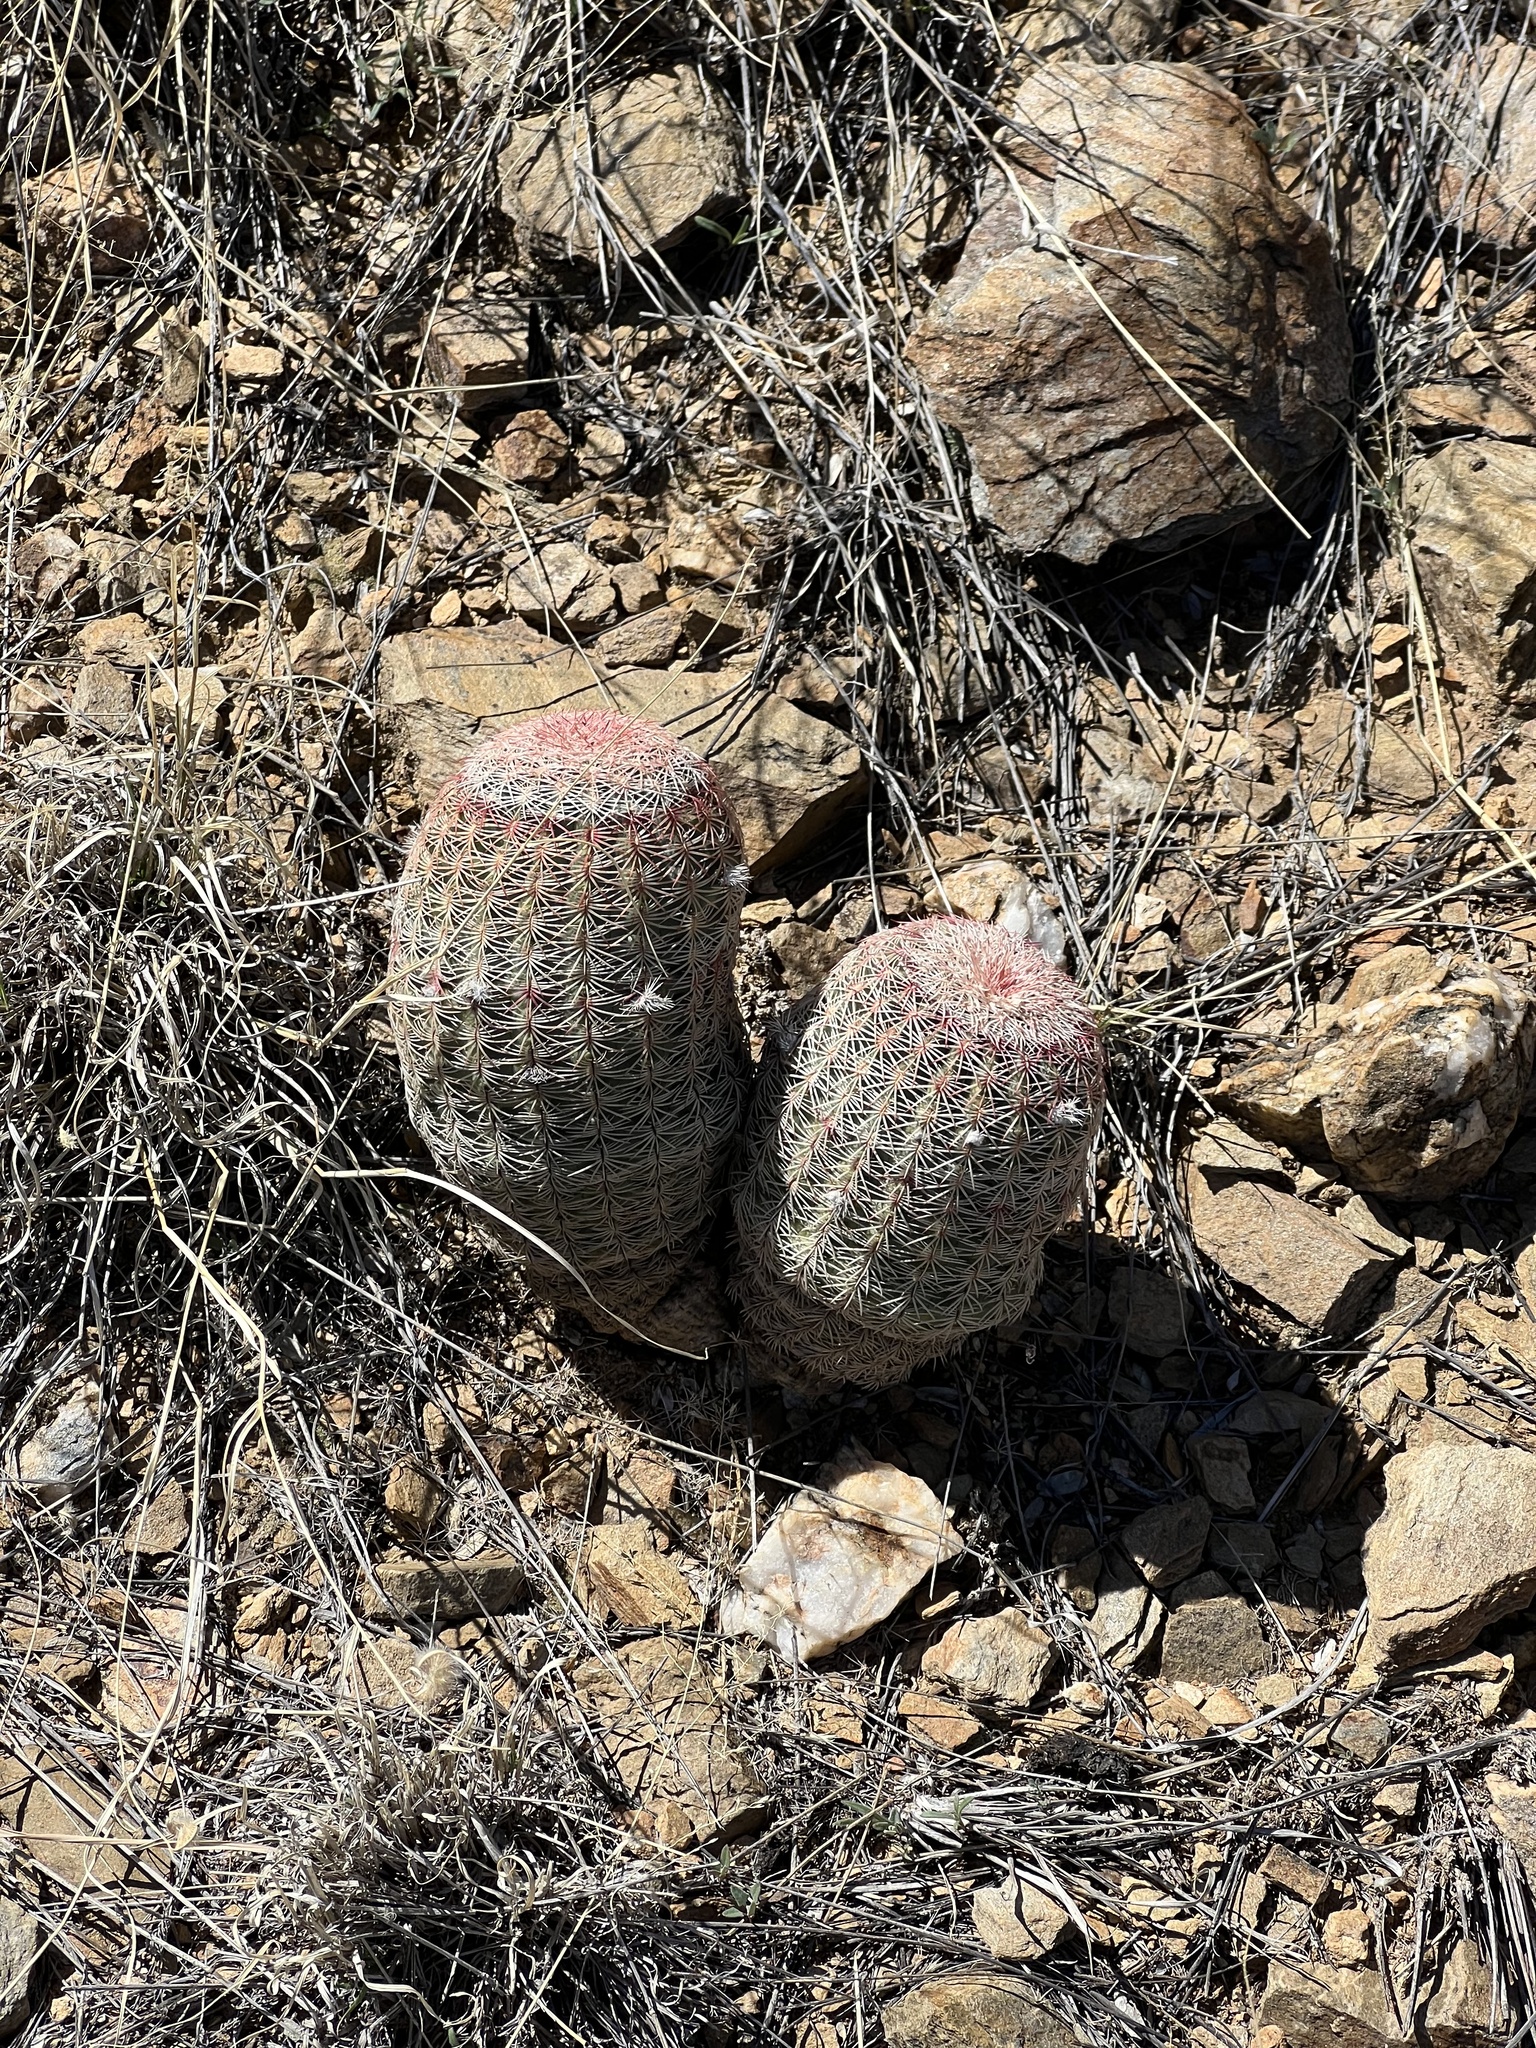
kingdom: Plantae
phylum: Tracheophyta
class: Magnoliopsida
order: Caryophyllales
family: Cactaceae
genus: Echinocereus
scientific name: Echinocereus rigidissimus
